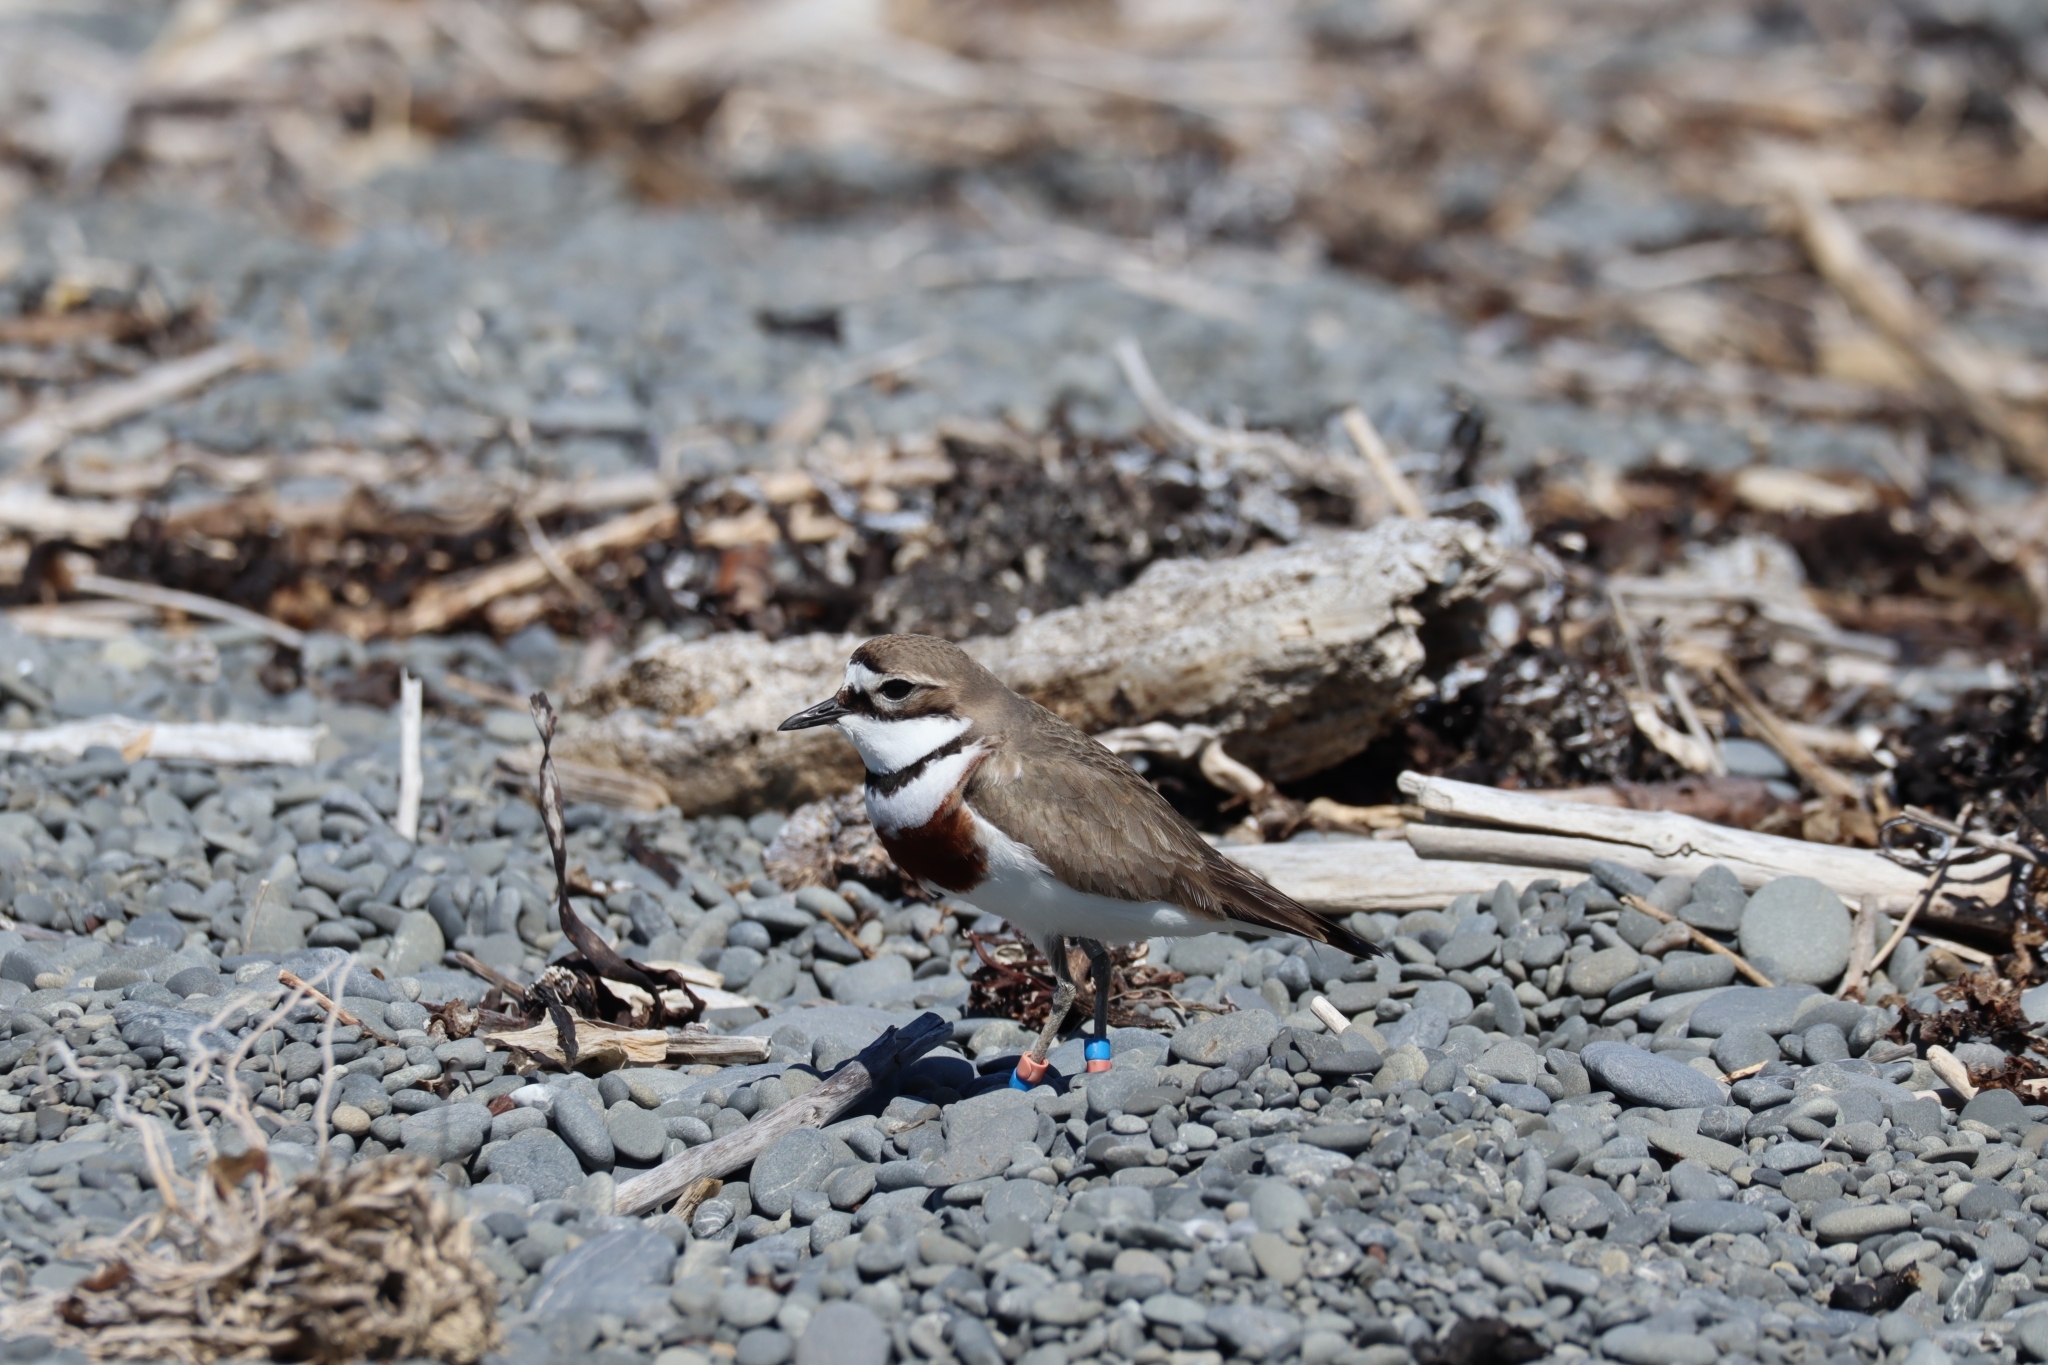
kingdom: Animalia
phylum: Chordata
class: Aves
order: Charadriiformes
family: Charadriidae
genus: Anarhynchus
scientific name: Anarhynchus
